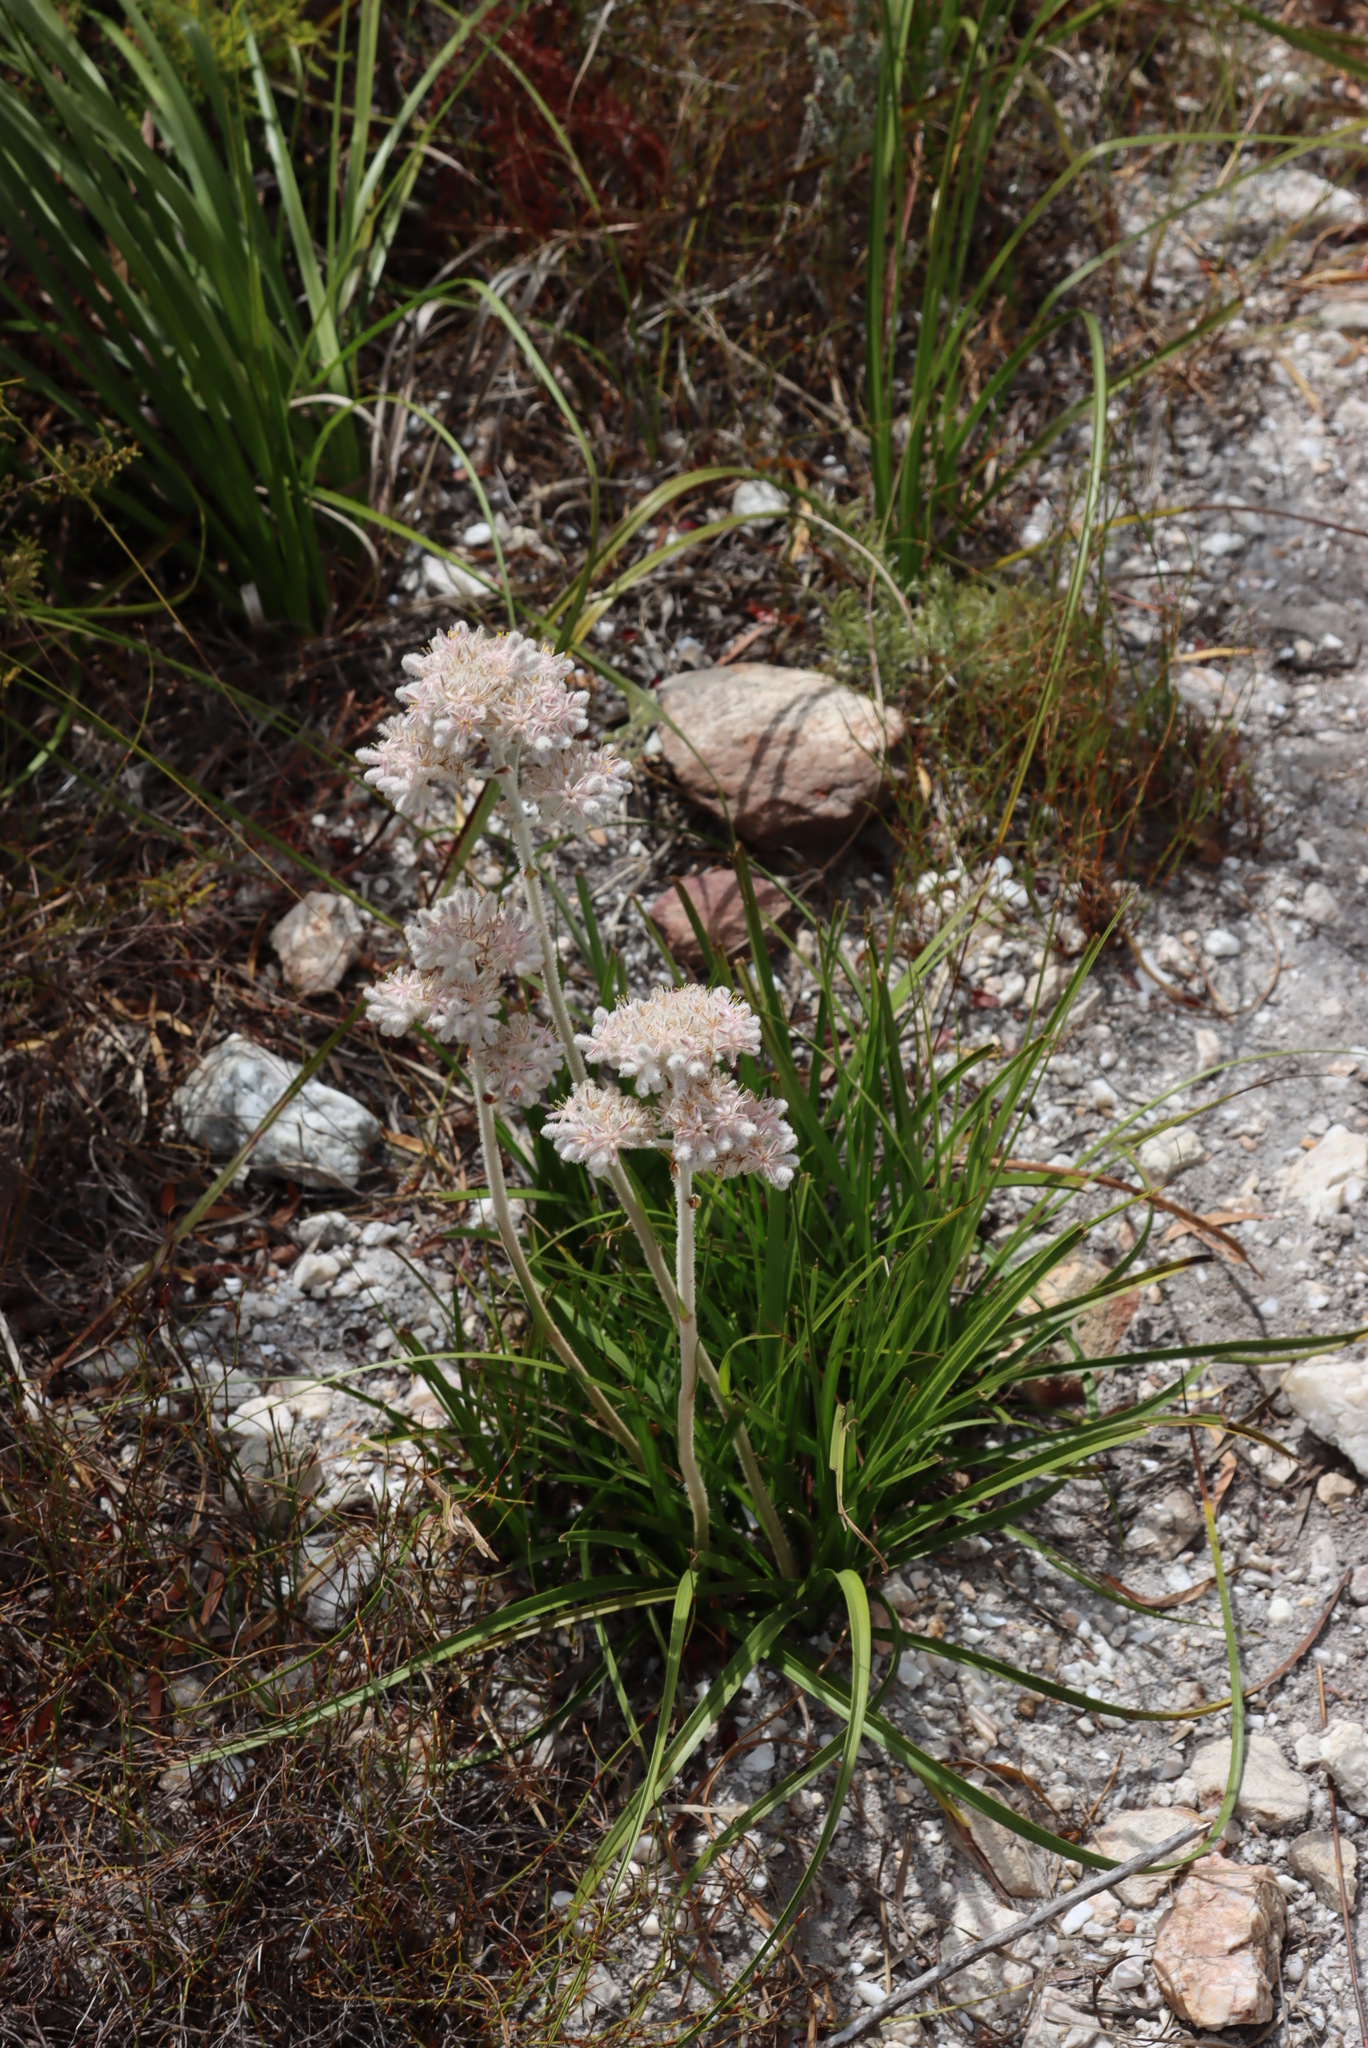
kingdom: Plantae
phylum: Tracheophyta
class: Liliopsida
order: Asparagales
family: Lanariaceae
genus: Lanaria
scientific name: Lanaria lanata
